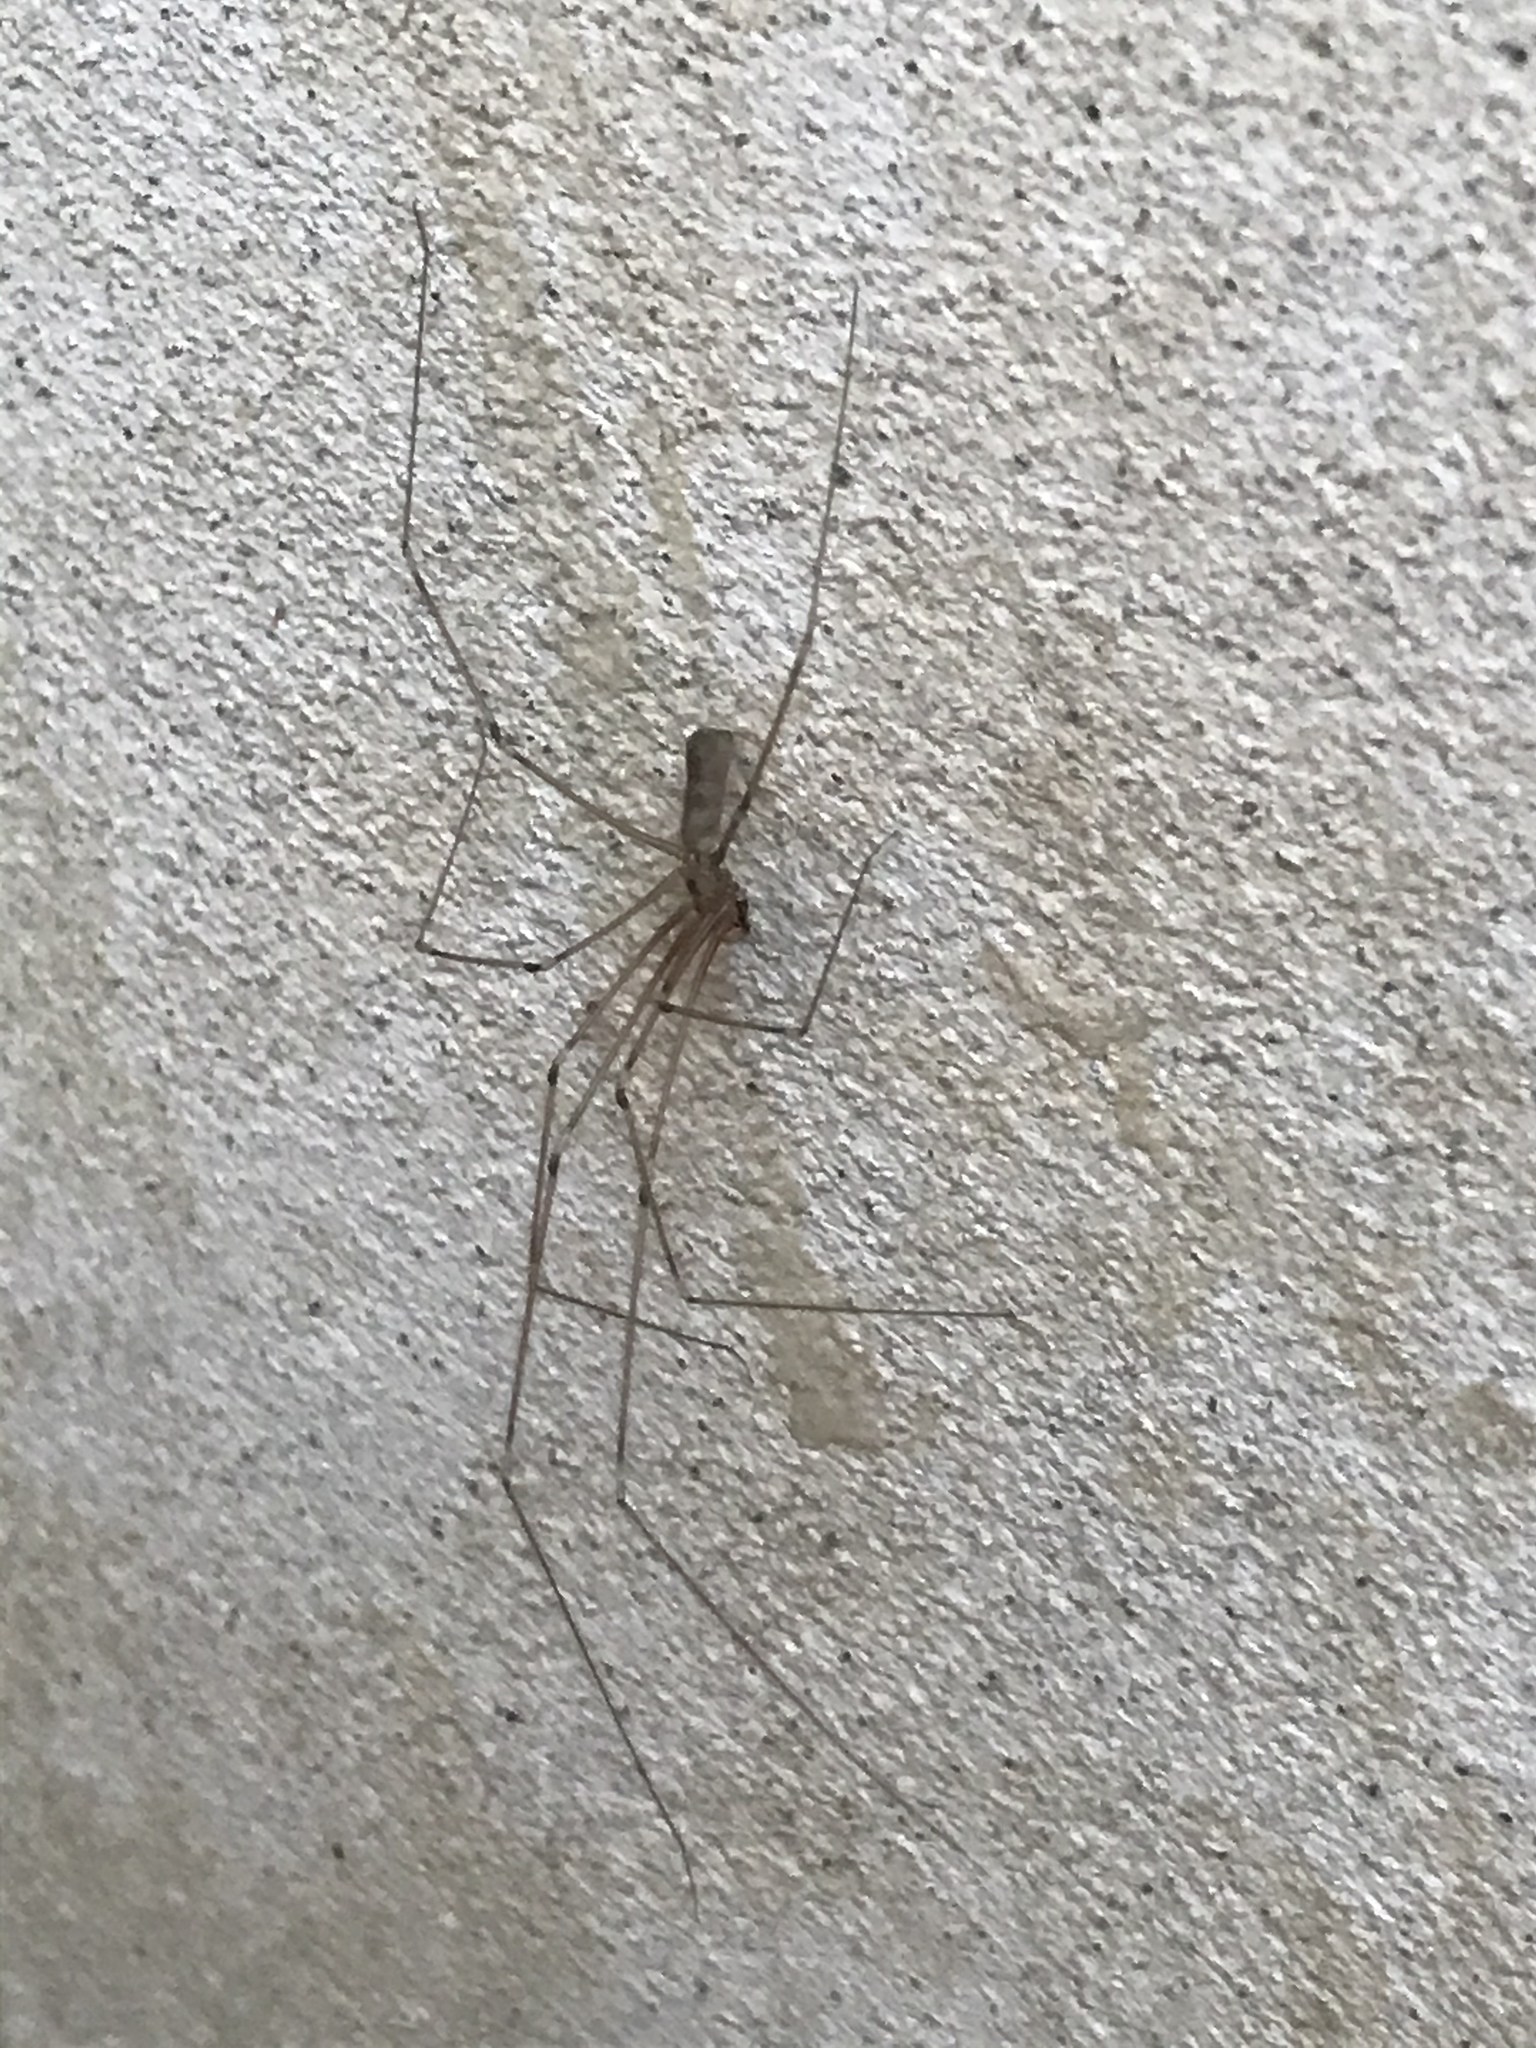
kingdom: Animalia
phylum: Arthropoda
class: Arachnida
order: Araneae
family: Pholcidae
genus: Pholcus
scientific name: Pholcus phalangioides
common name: Longbodied cellar spider
